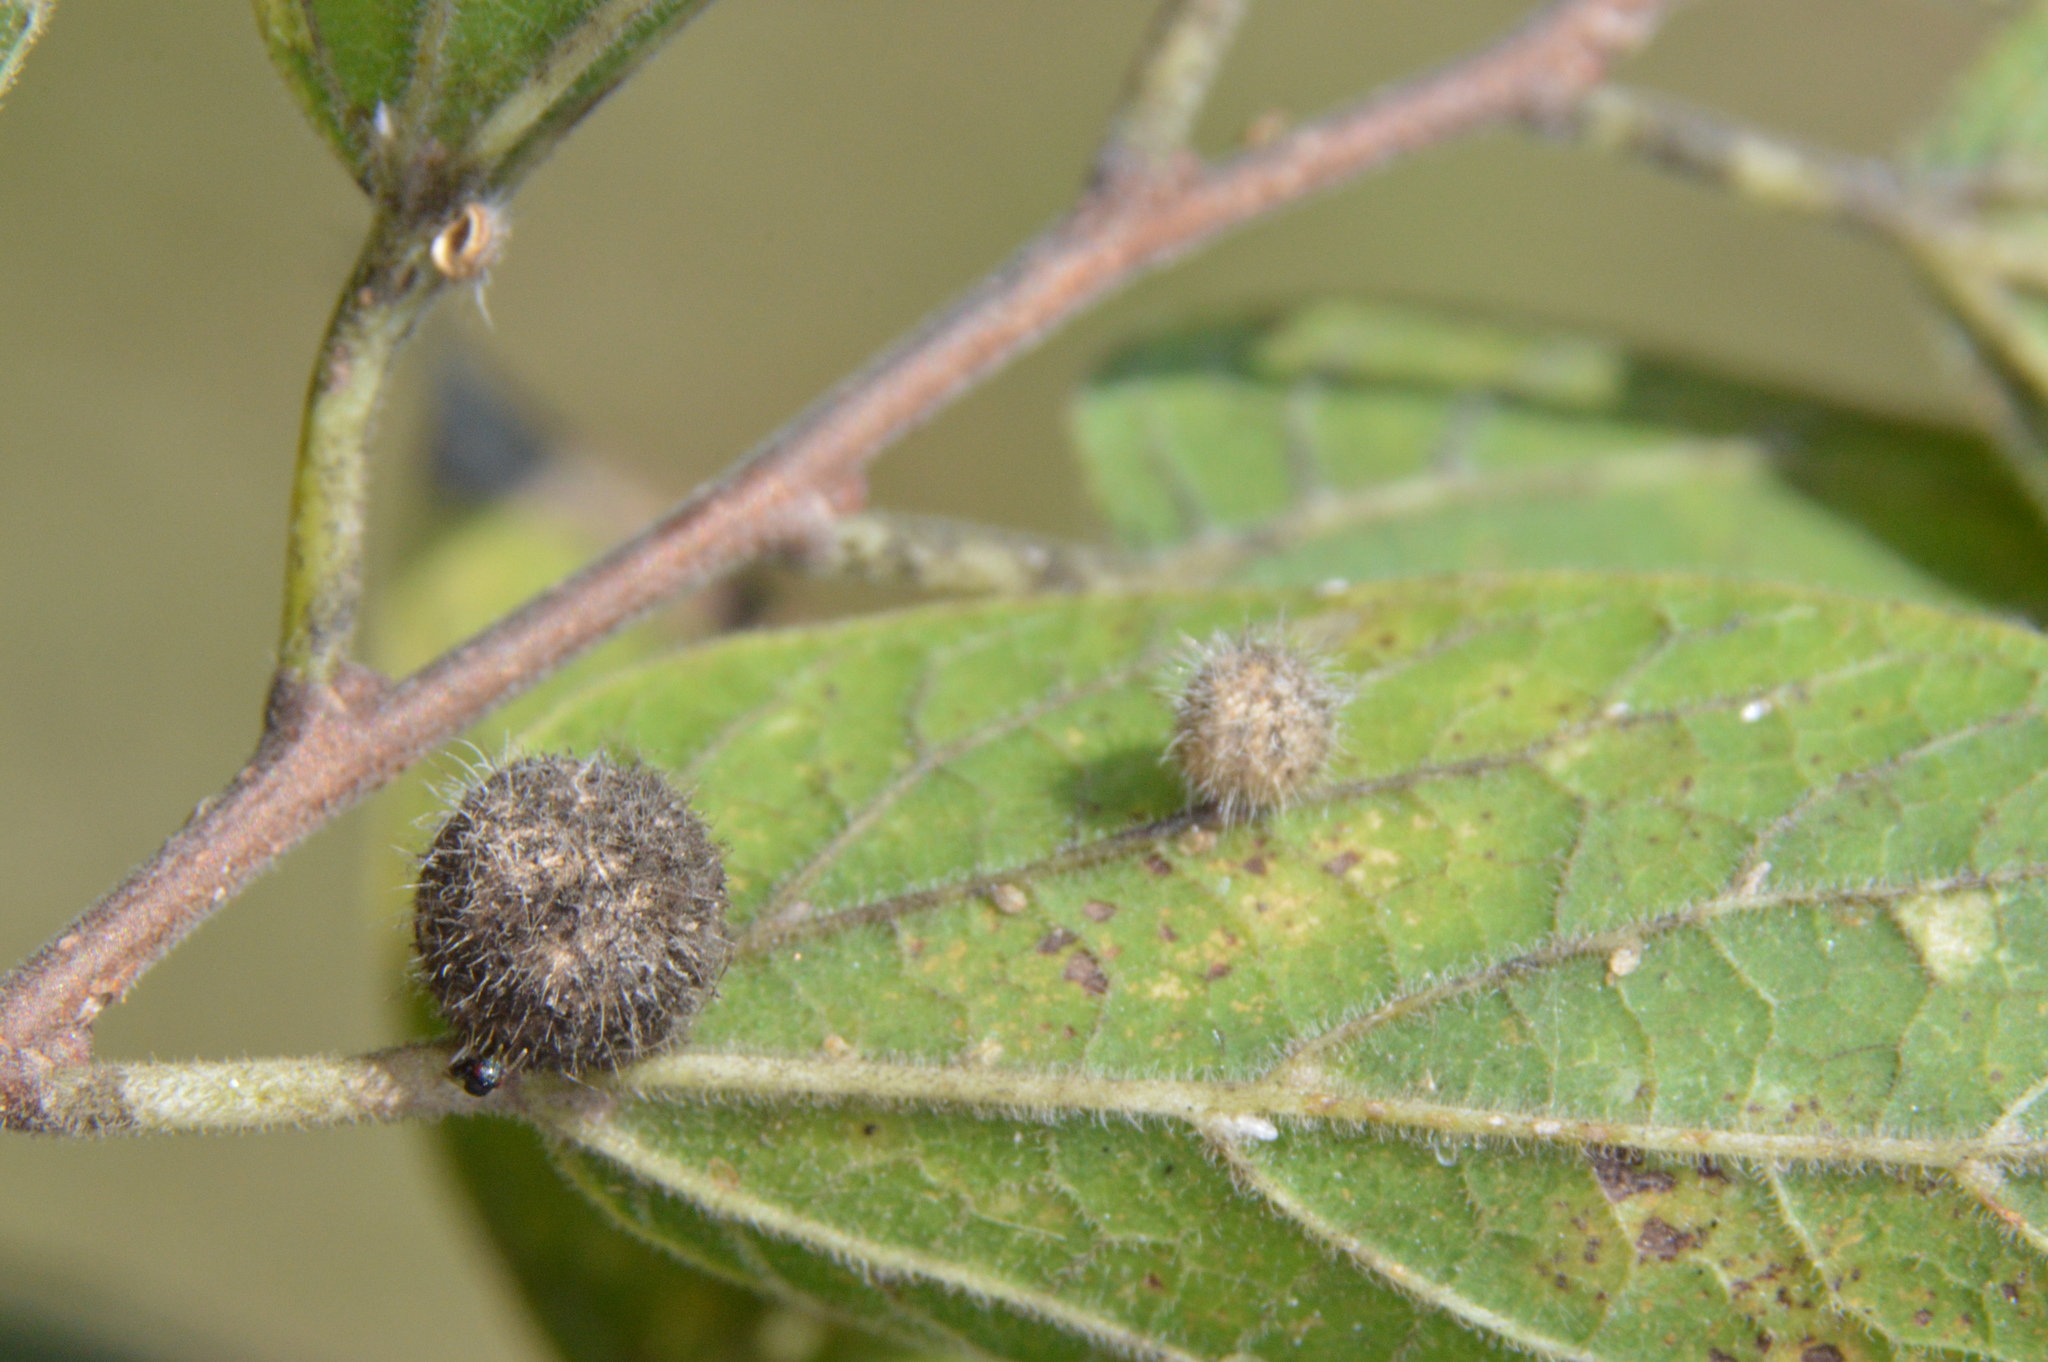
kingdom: Animalia
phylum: Arthropoda
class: Insecta
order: Diptera
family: Cecidomyiidae
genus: Celticecis
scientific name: Celticecis pubescens
